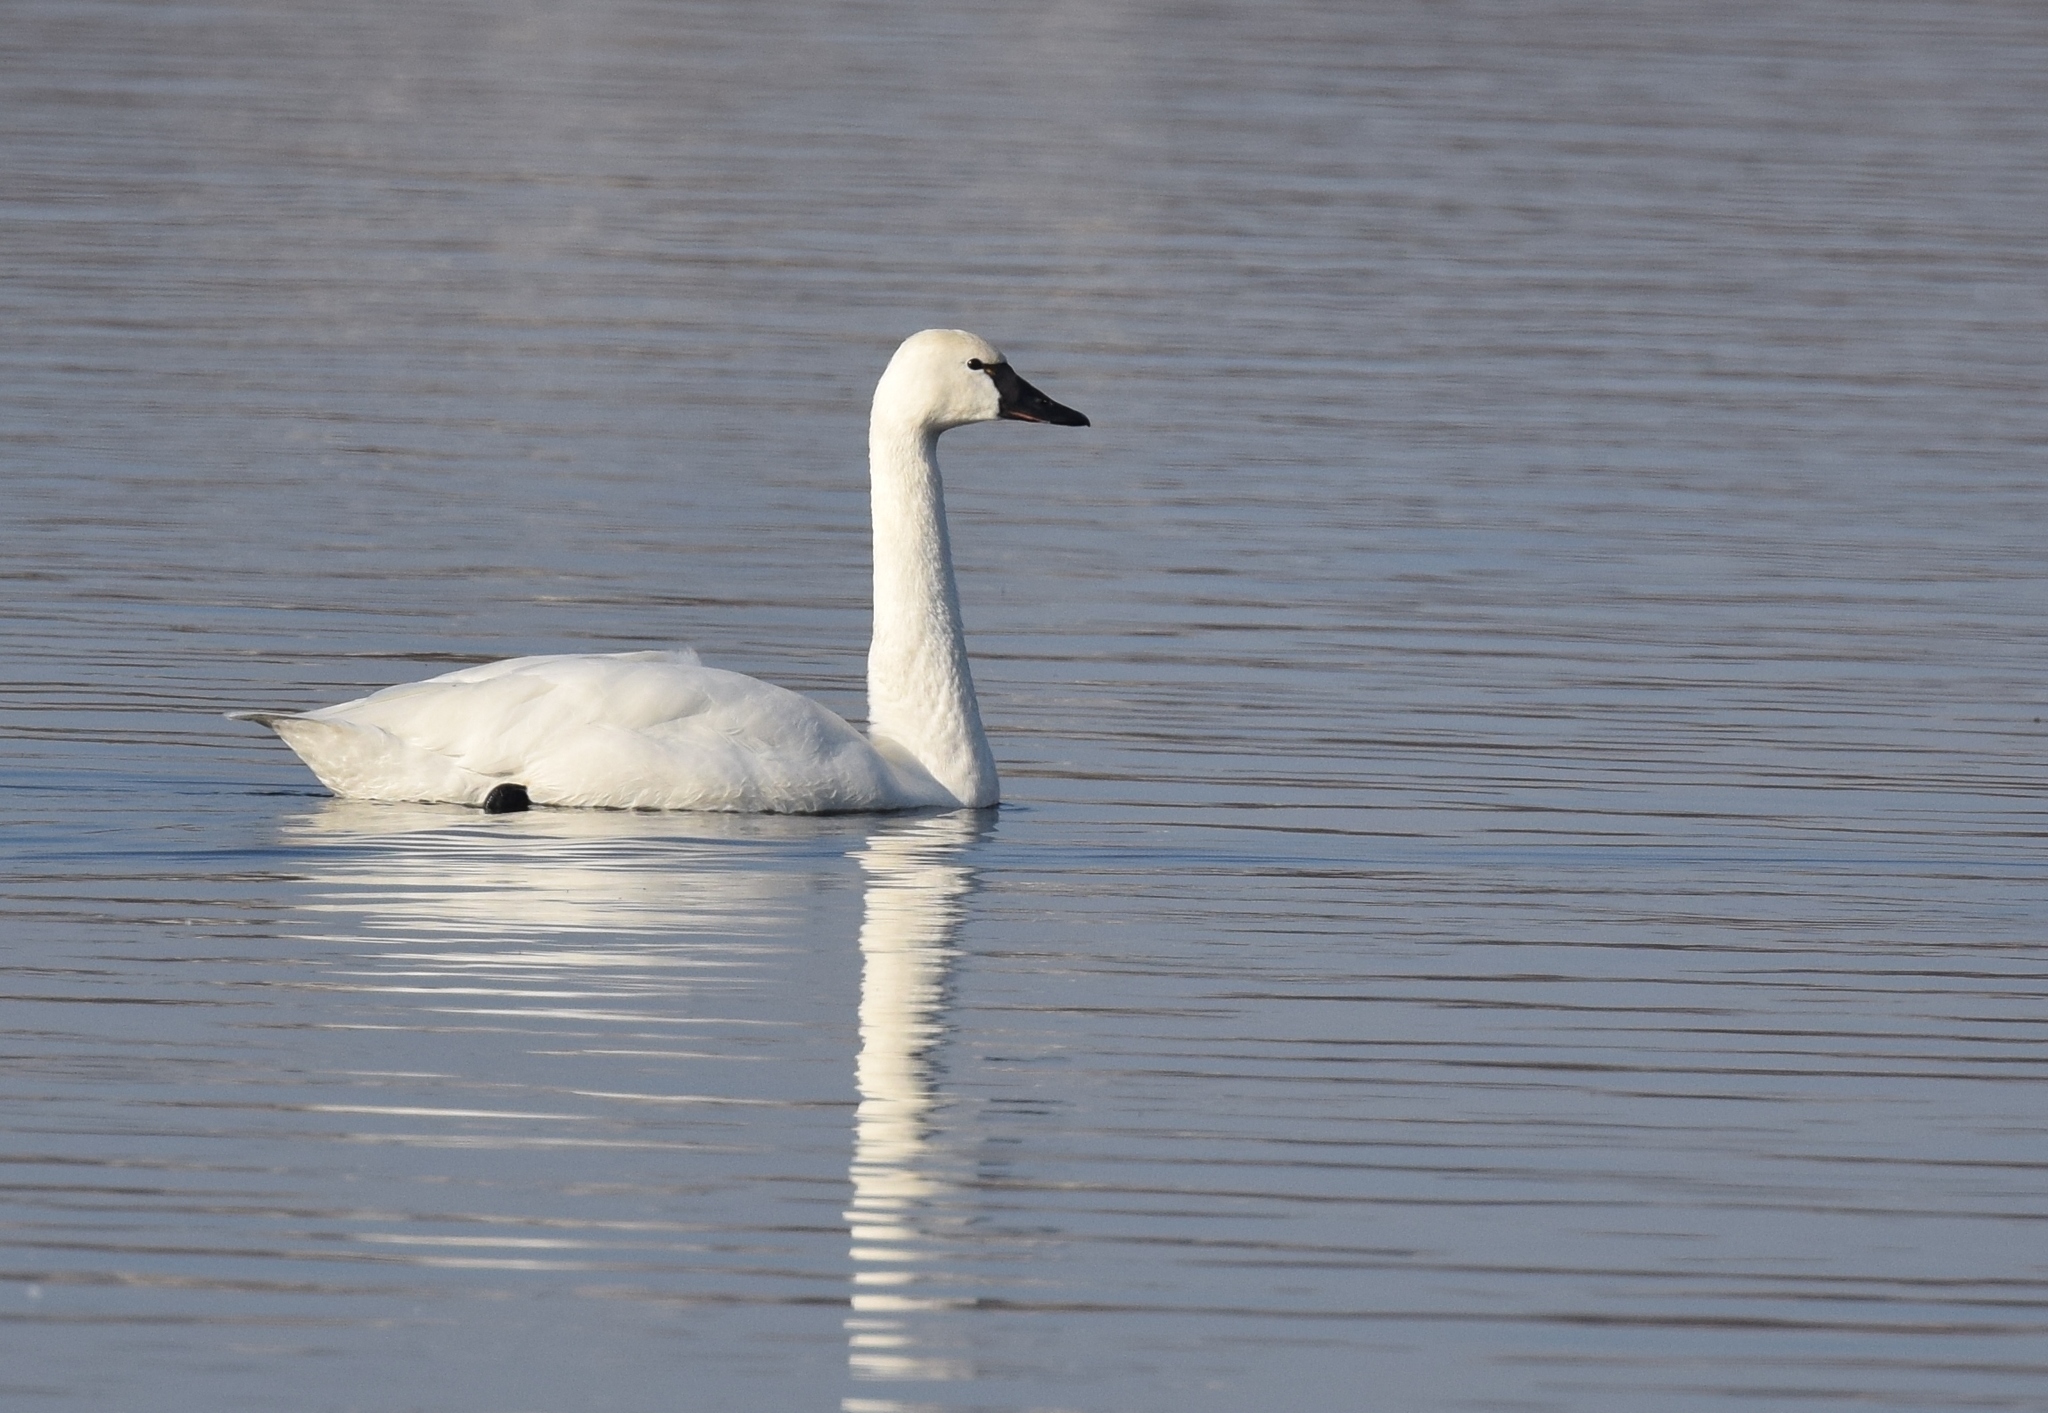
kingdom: Animalia
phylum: Chordata
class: Aves
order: Anseriformes
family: Anatidae
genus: Cygnus
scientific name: Cygnus columbianus
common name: Tundra swan
